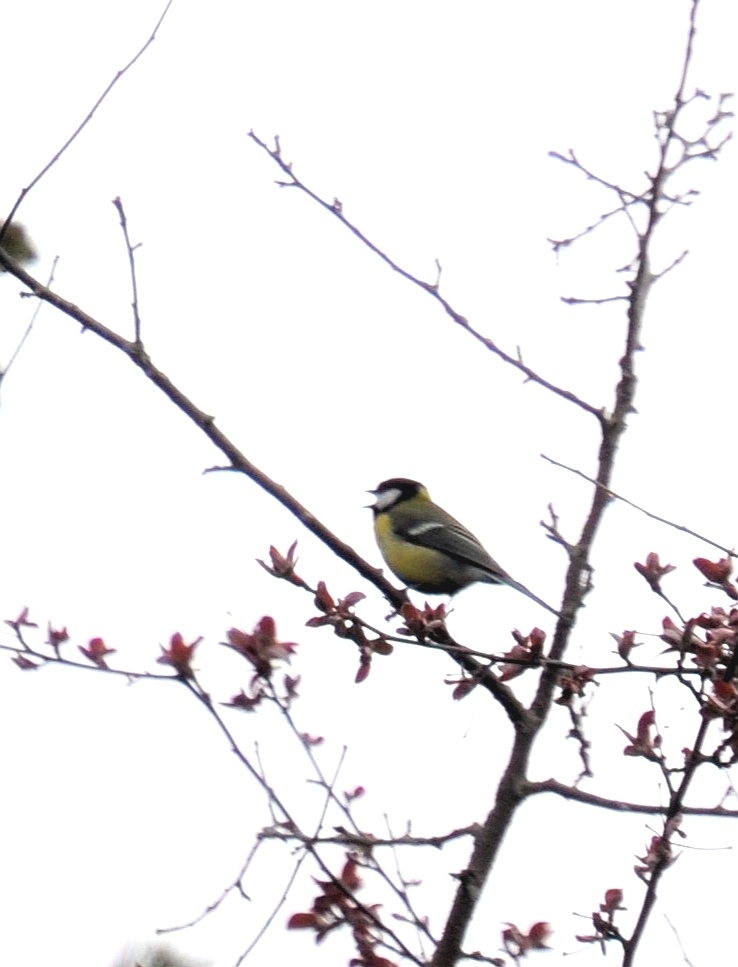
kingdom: Animalia
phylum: Chordata
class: Aves
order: Passeriformes
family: Paridae
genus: Parus
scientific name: Parus major
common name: Great tit
